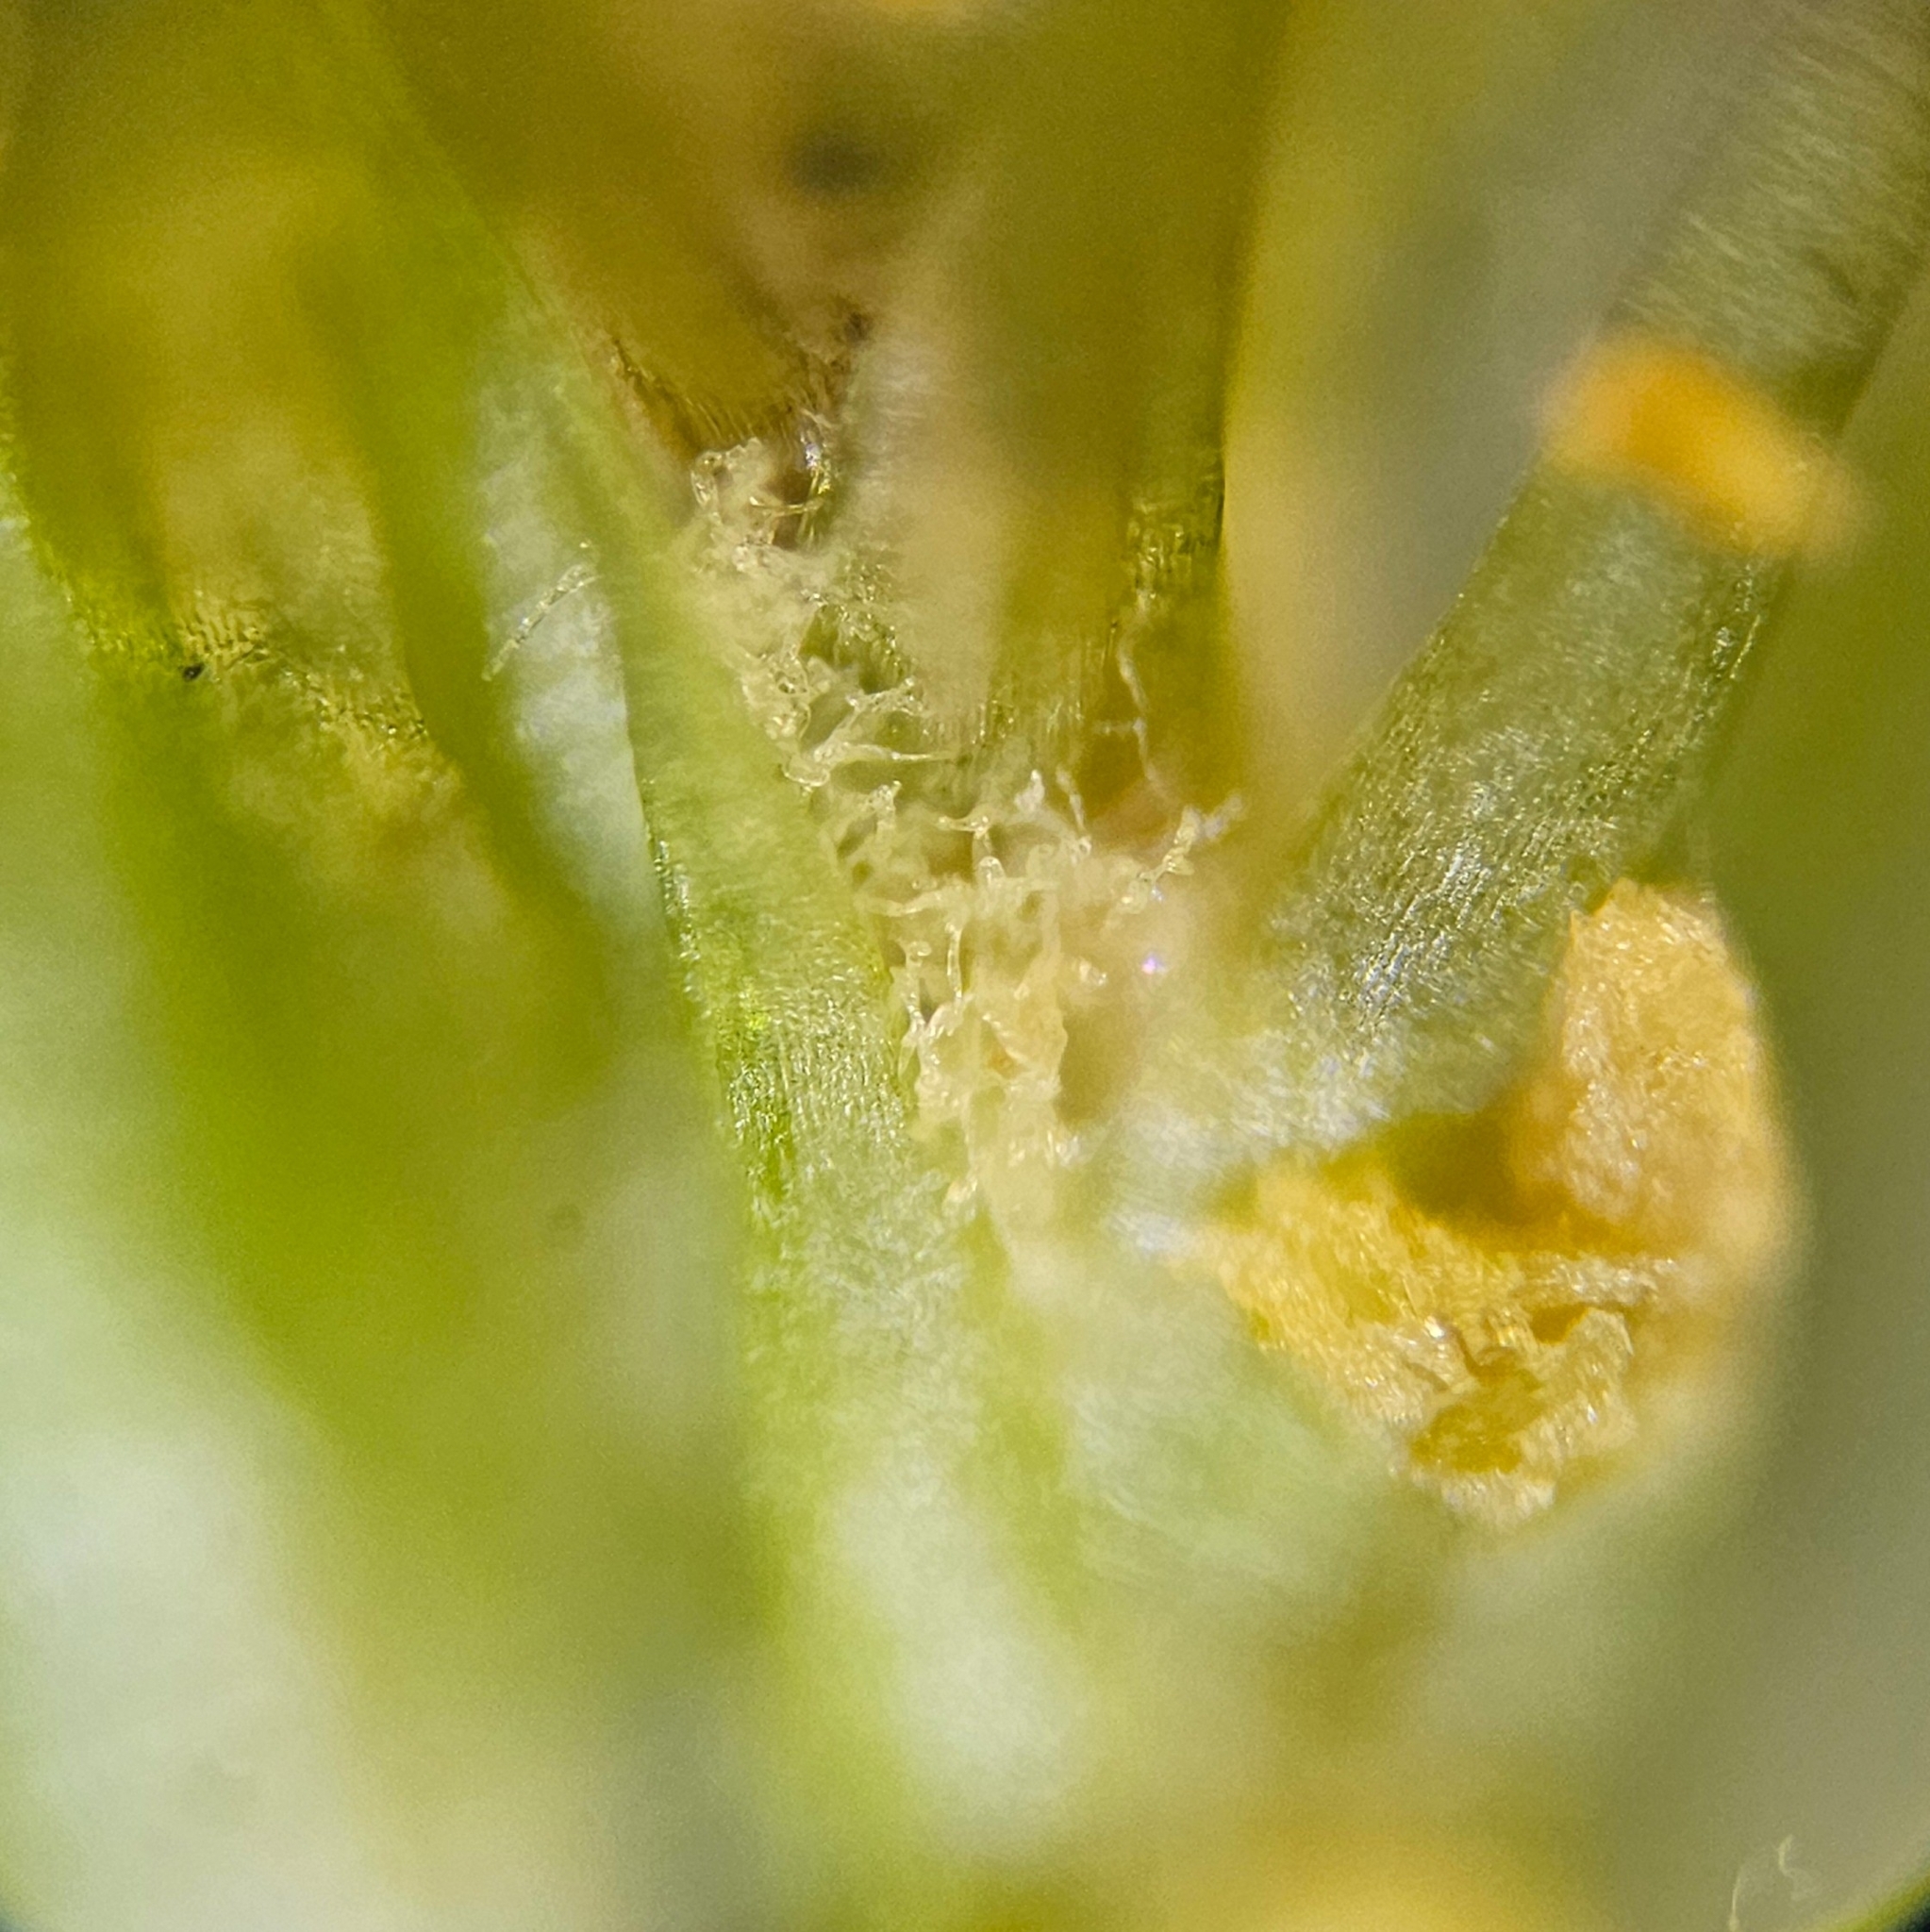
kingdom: Plantae
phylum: Bryophyta
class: Bryopsida
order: Dicranales
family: Dicranaceae
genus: Dicranum
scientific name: Dicranum fuscescens
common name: Curly heron's-bill moss
